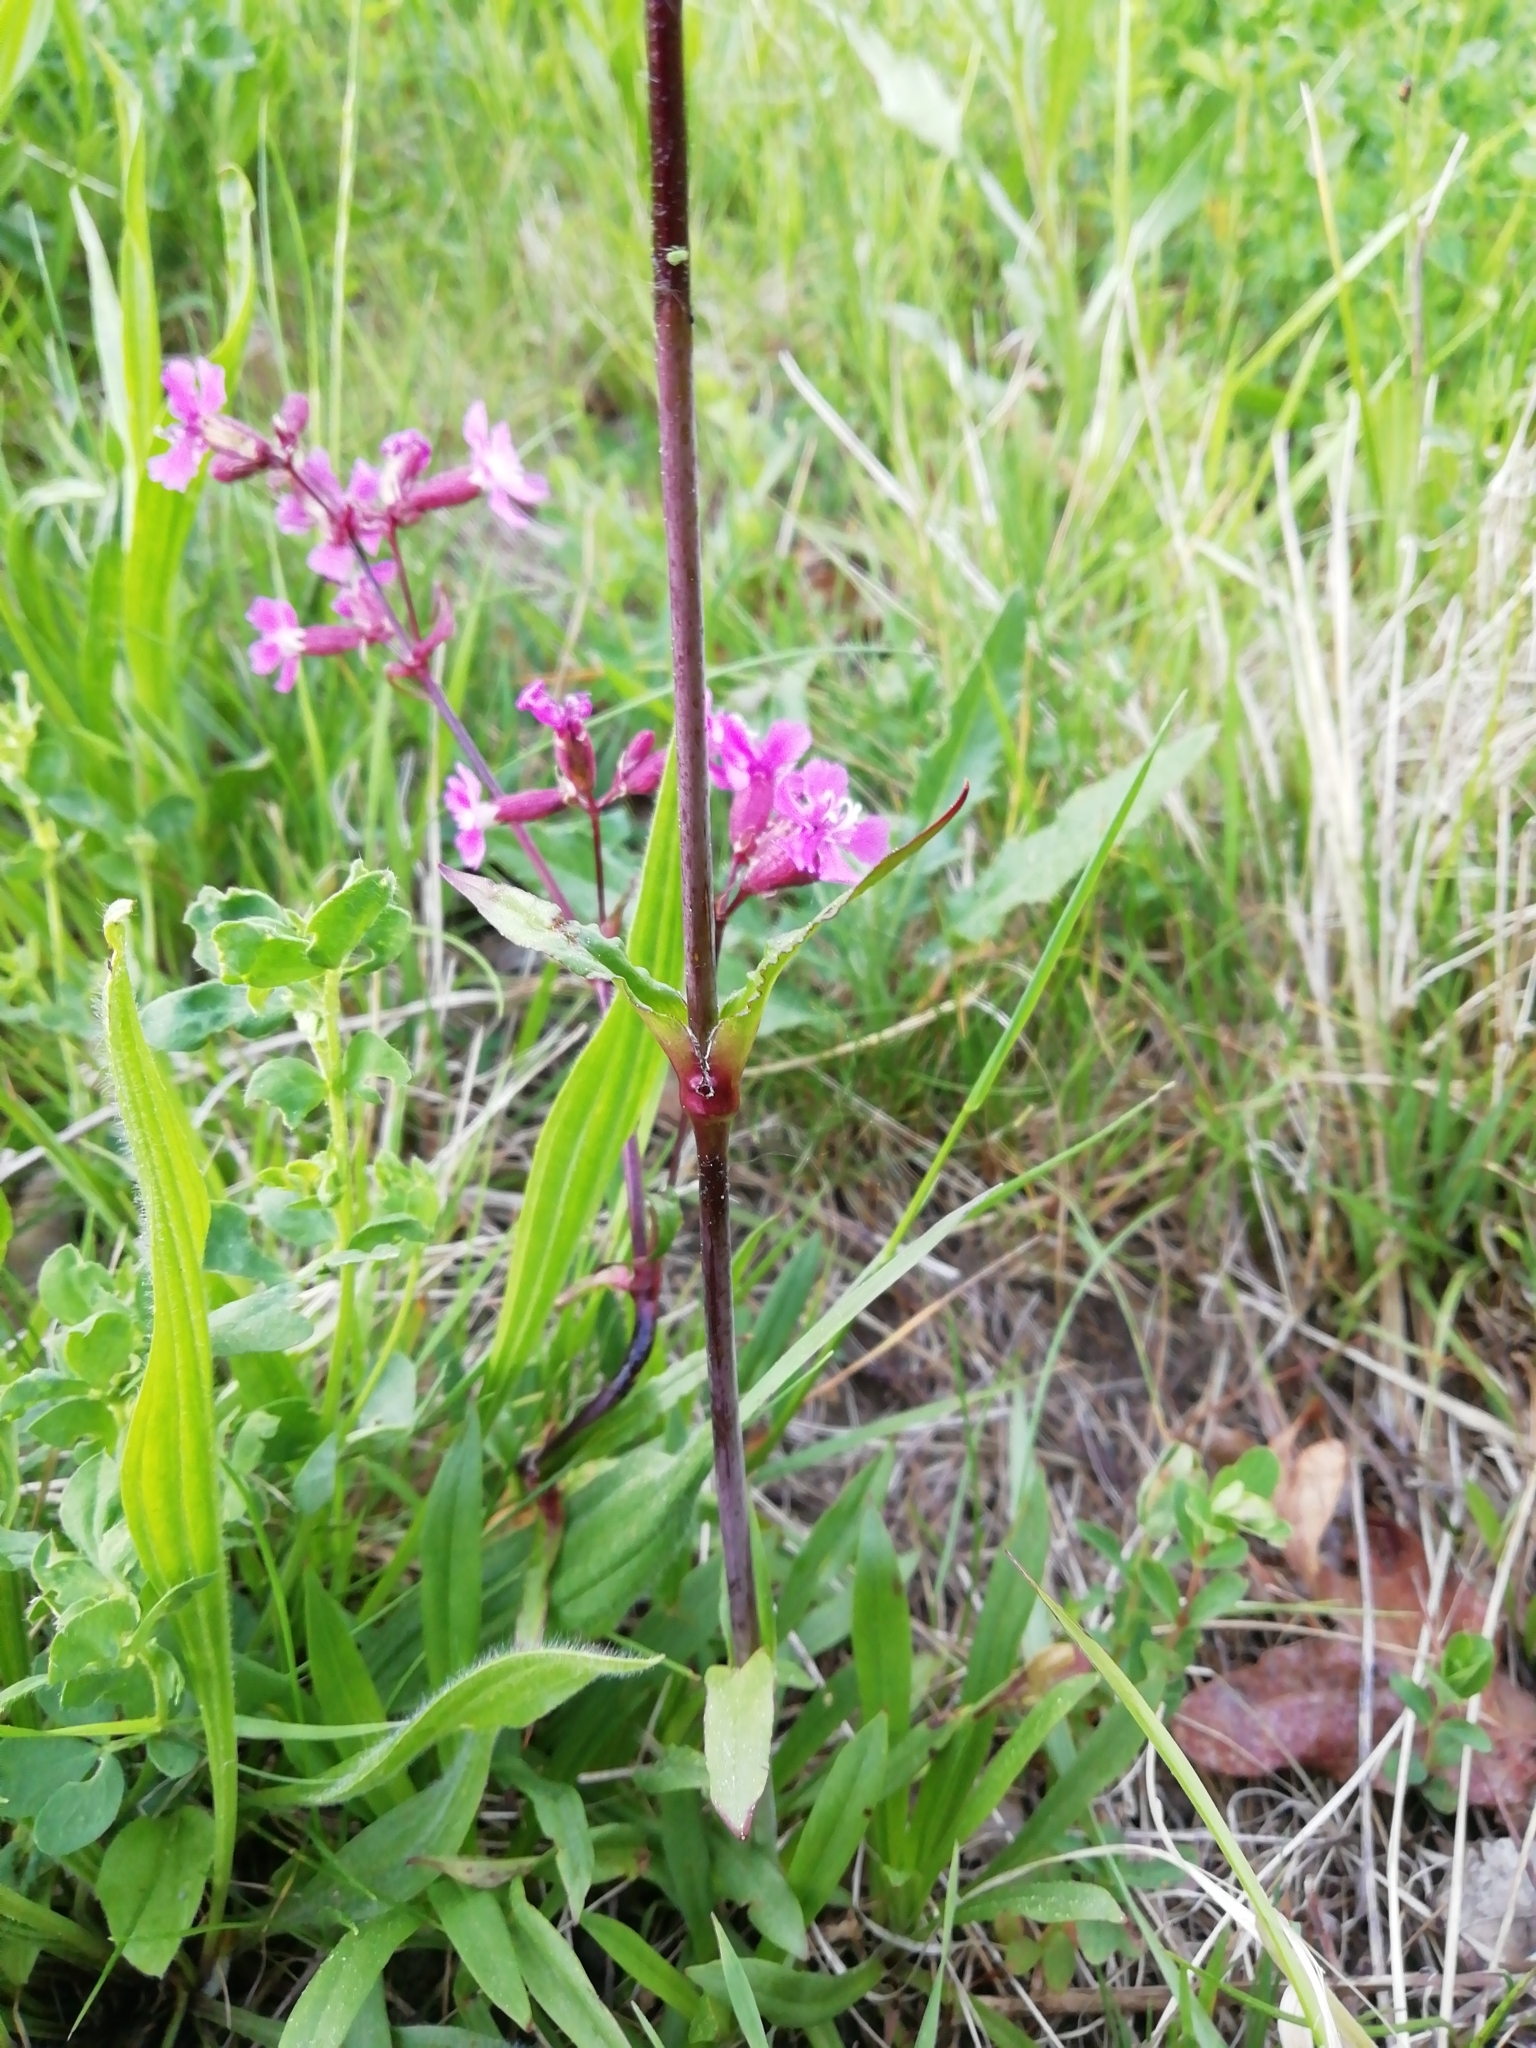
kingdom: Plantae
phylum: Tracheophyta
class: Magnoliopsida
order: Caryophyllales
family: Caryophyllaceae
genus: Viscaria
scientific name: Viscaria vulgaris
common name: Clammy campion
